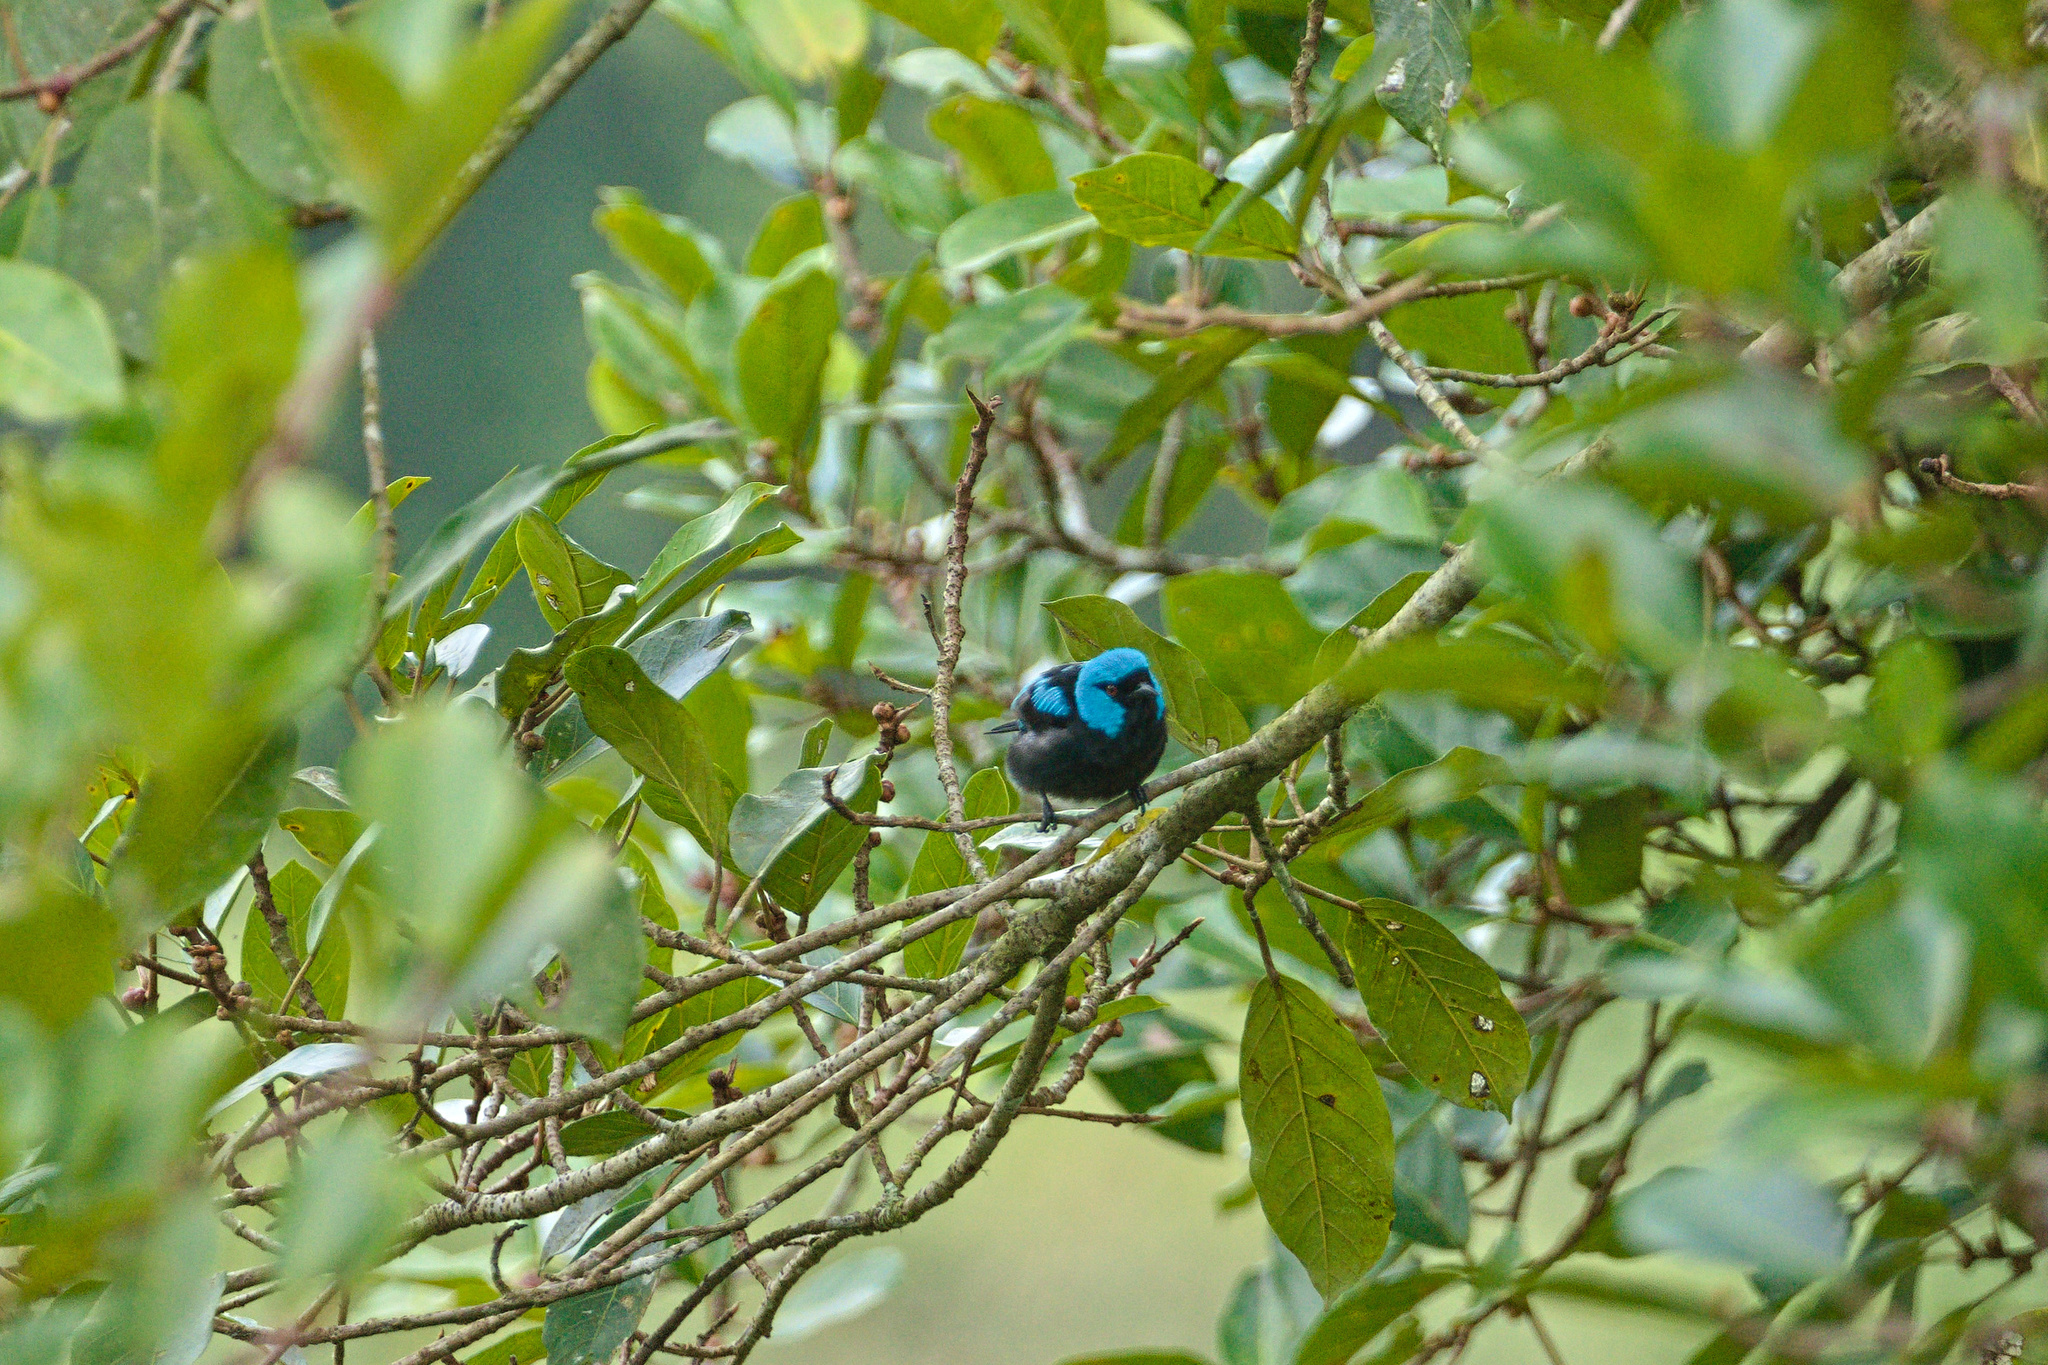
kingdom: Animalia
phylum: Chordata
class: Aves
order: Passeriformes
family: Thraupidae
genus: Dacnis
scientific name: Dacnis venusta
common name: Scarlet-thighed dacnis
